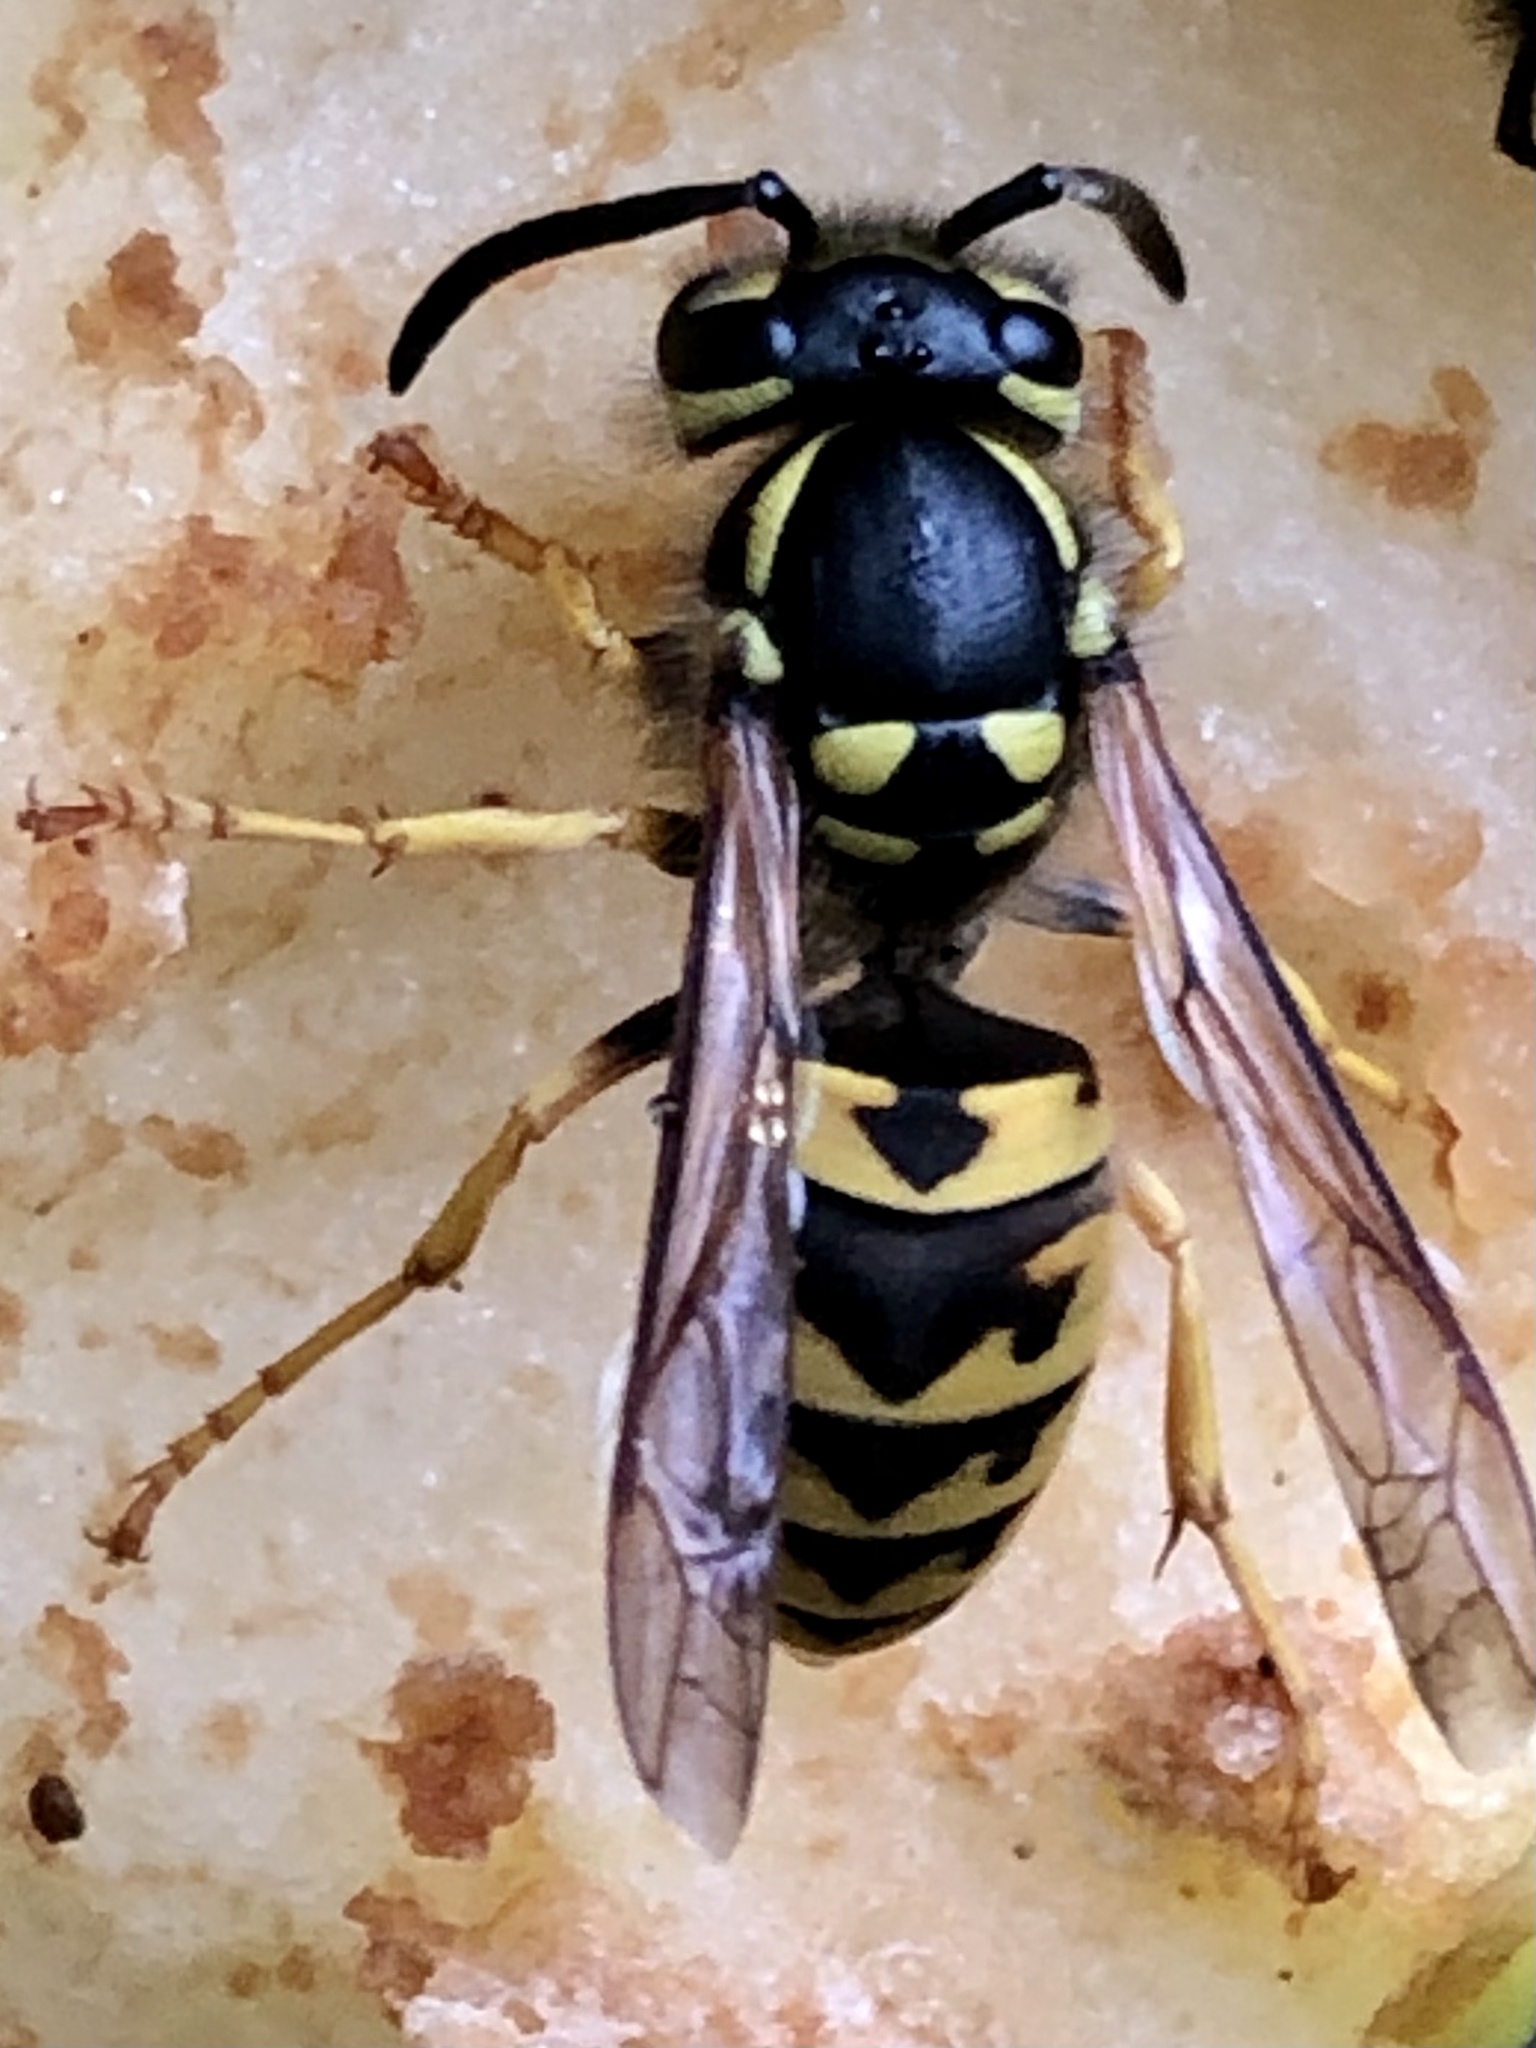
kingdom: Animalia
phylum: Arthropoda
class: Insecta
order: Hymenoptera
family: Vespidae
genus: Vespula
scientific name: Vespula germanica
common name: German wasp
